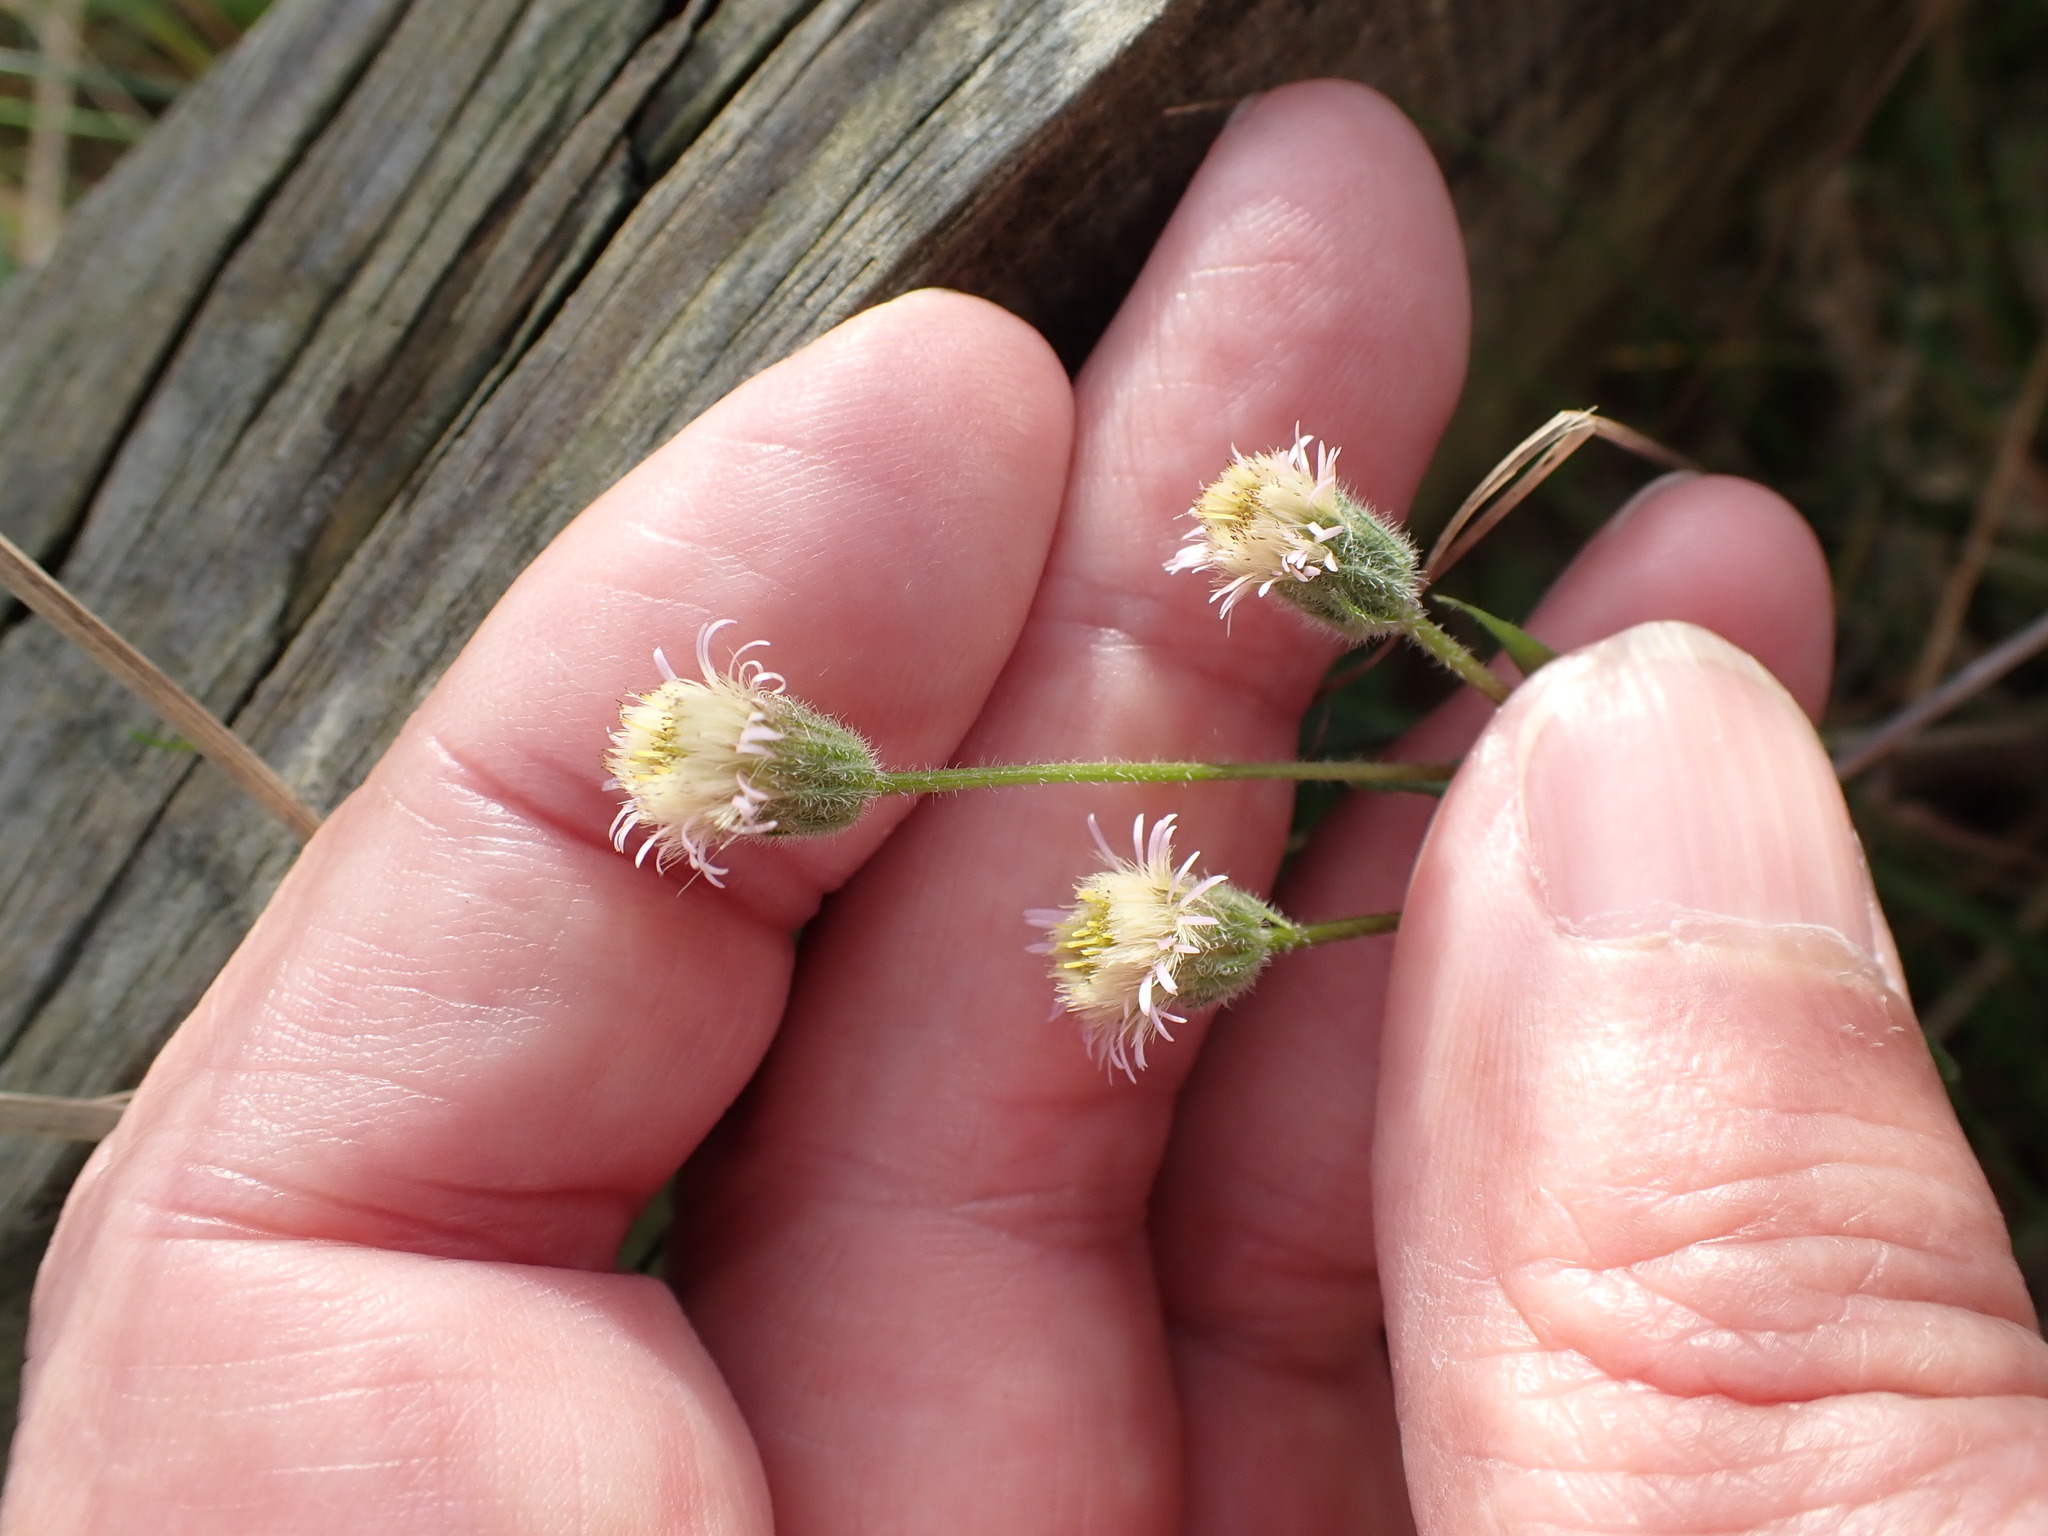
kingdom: Plantae
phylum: Tracheophyta
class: Magnoliopsida
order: Asterales
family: Asteraceae
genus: Erigeron
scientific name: Erigeron acris
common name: Blue fleabane
